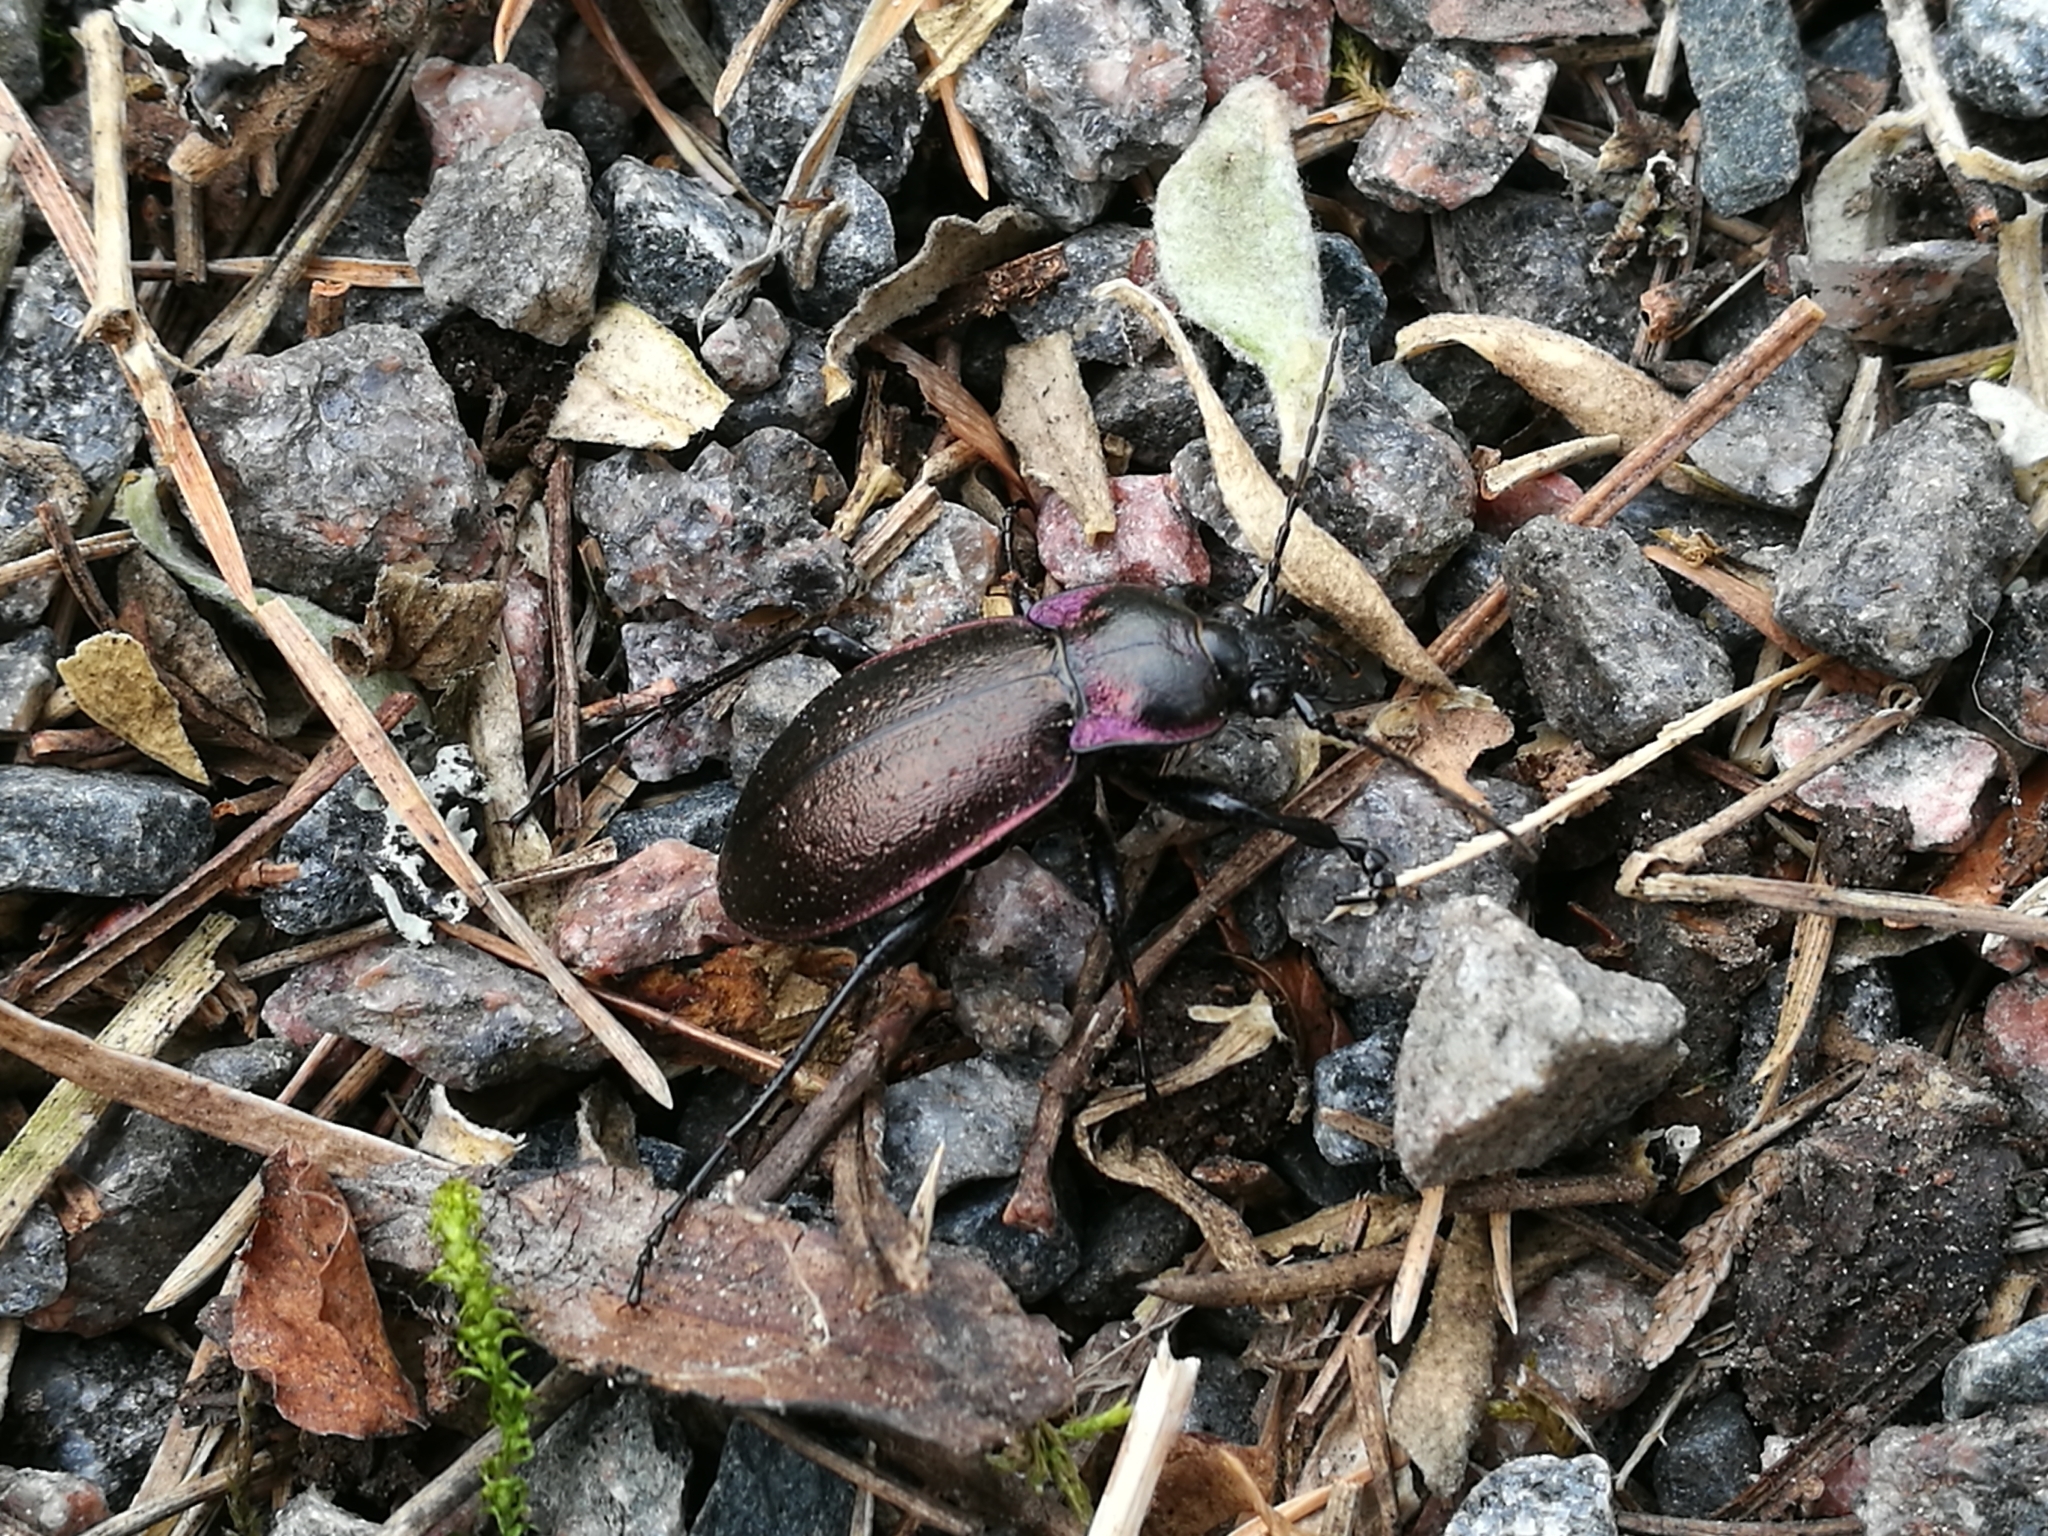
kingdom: Animalia
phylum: Arthropoda
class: Insecta
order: Coleoptera
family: Carabidae
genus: Carabus
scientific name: Carabus nemoralis
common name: European ground beetle
